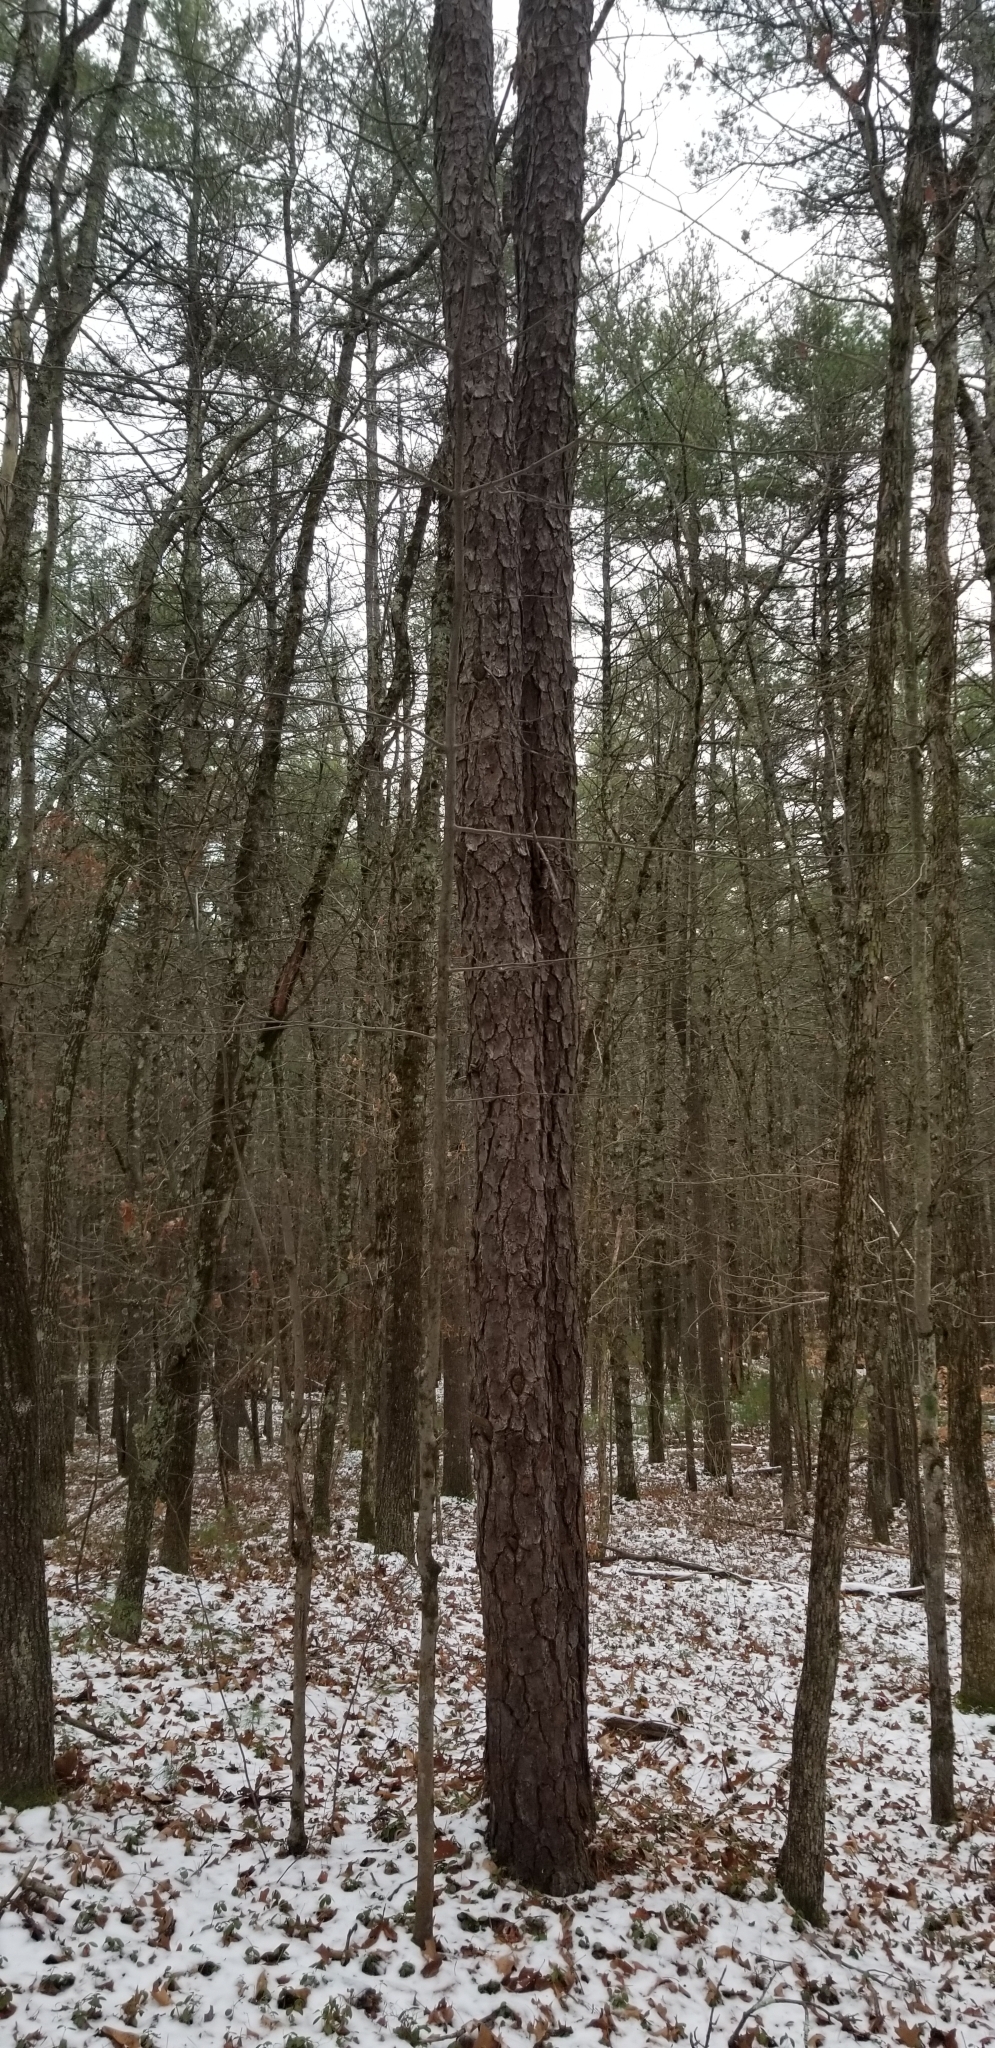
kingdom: Plantae
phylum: Tracheophyta
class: Pinopsida
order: Pinales
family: Pinaceae
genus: Pinus
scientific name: Pinus rigida
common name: Pitch pine
